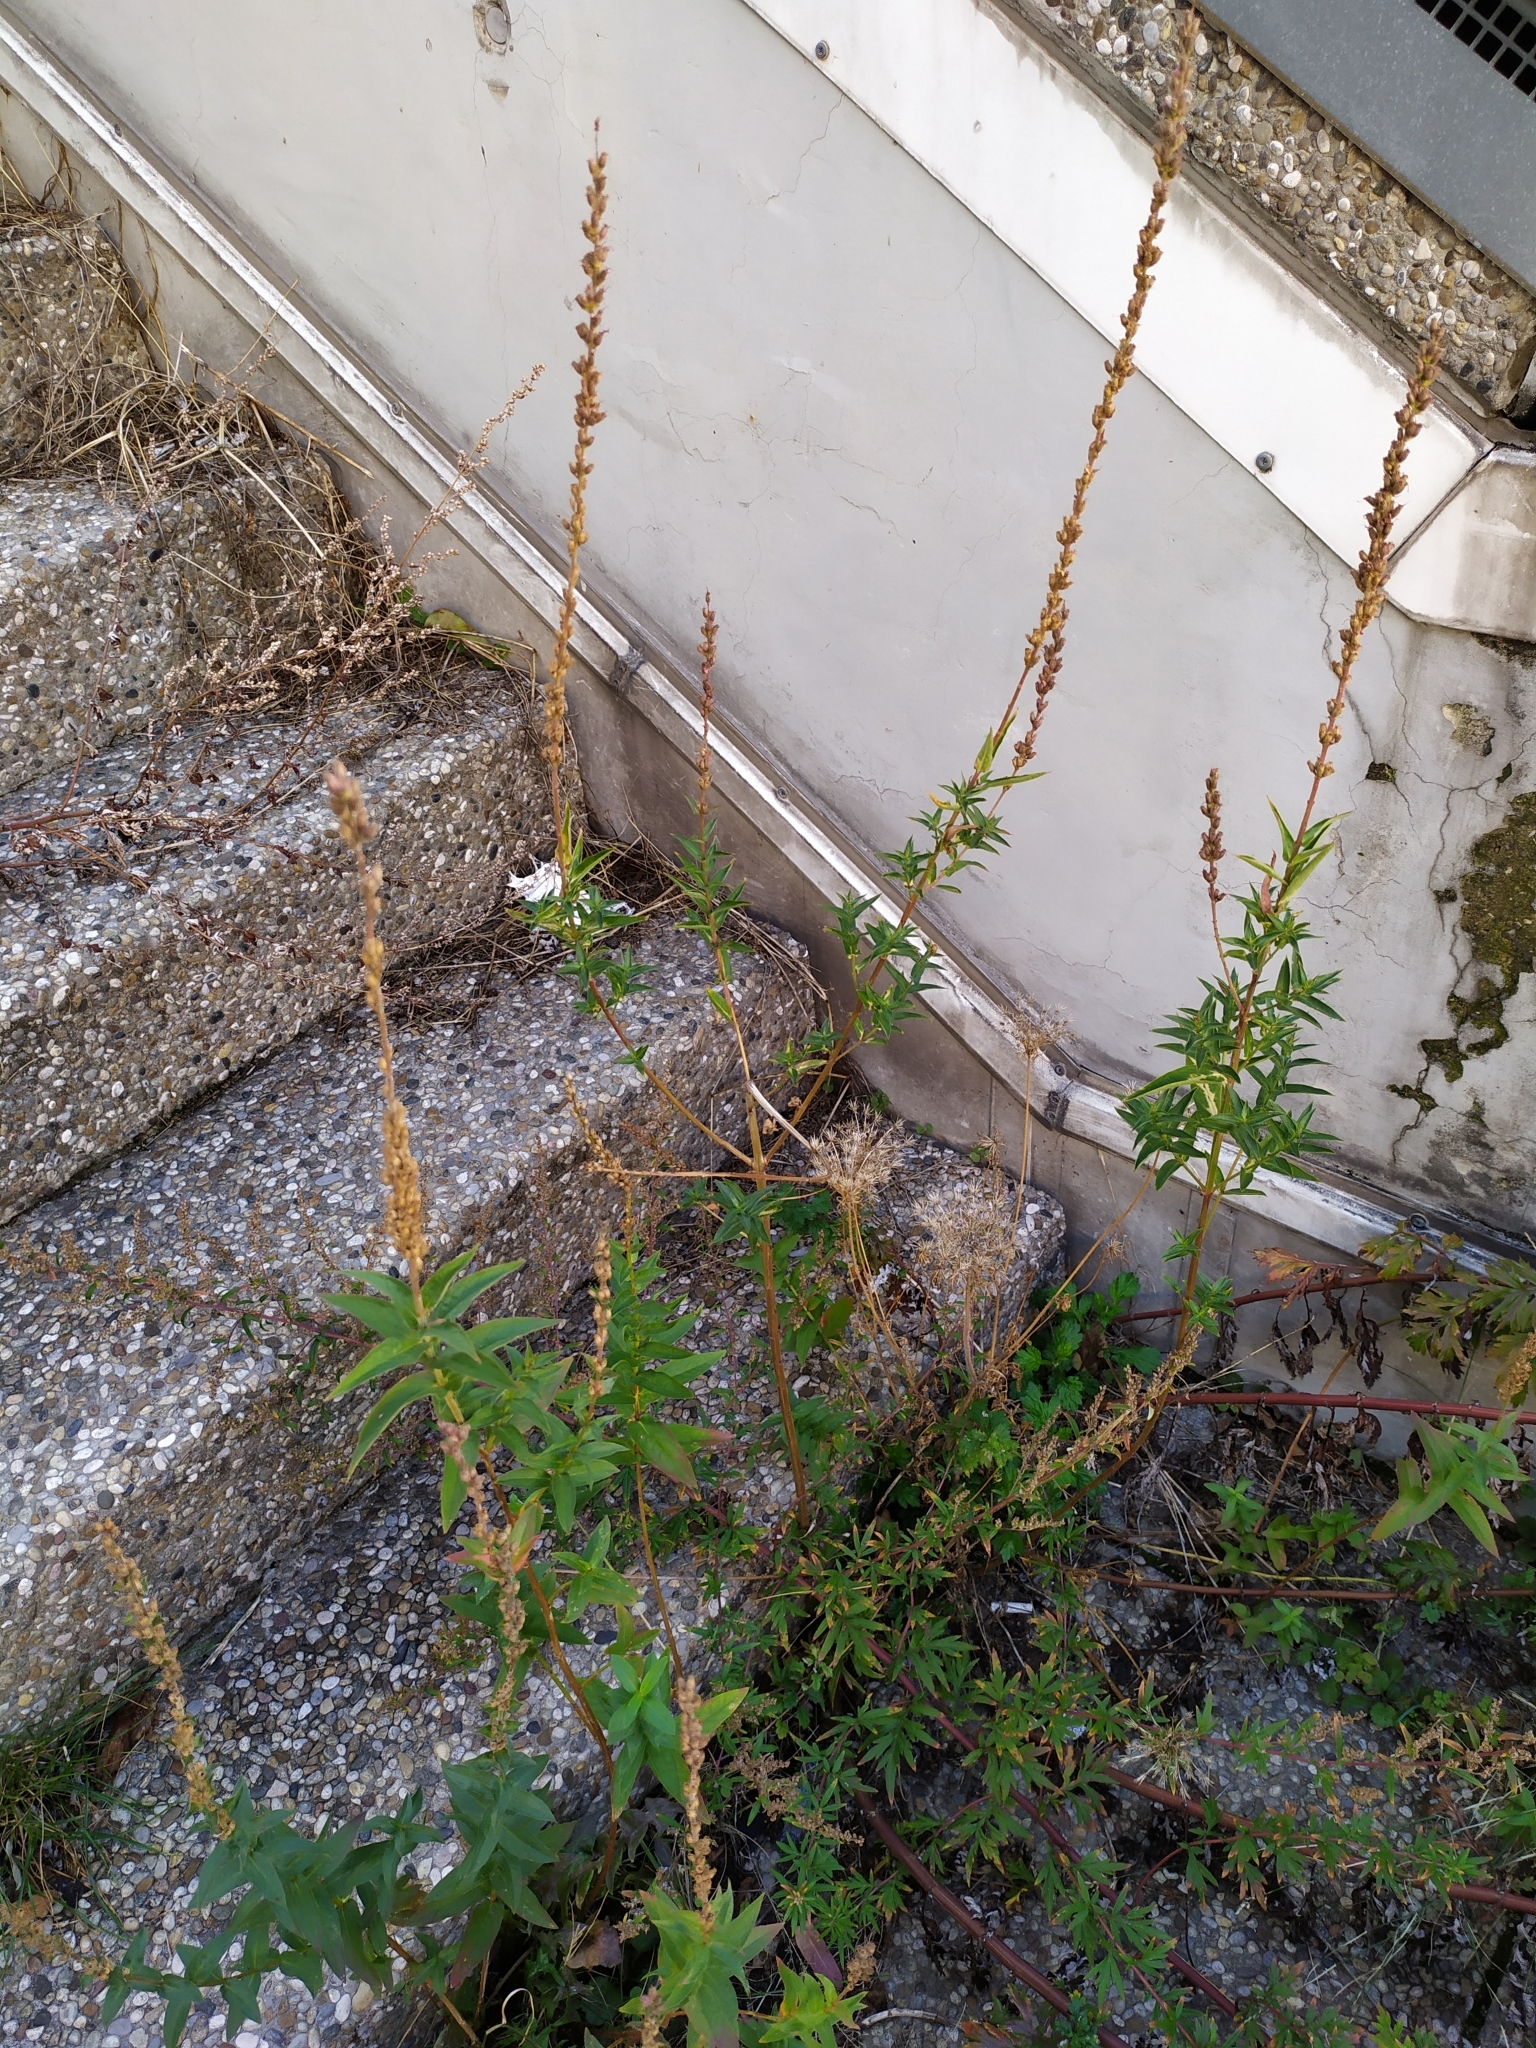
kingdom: Plantae
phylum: Tracheophyta
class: Magnoliopsida
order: Myrtales
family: Lythraceae
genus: Lythrum
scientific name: Lythrum salicaria
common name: Purple loosestrife
